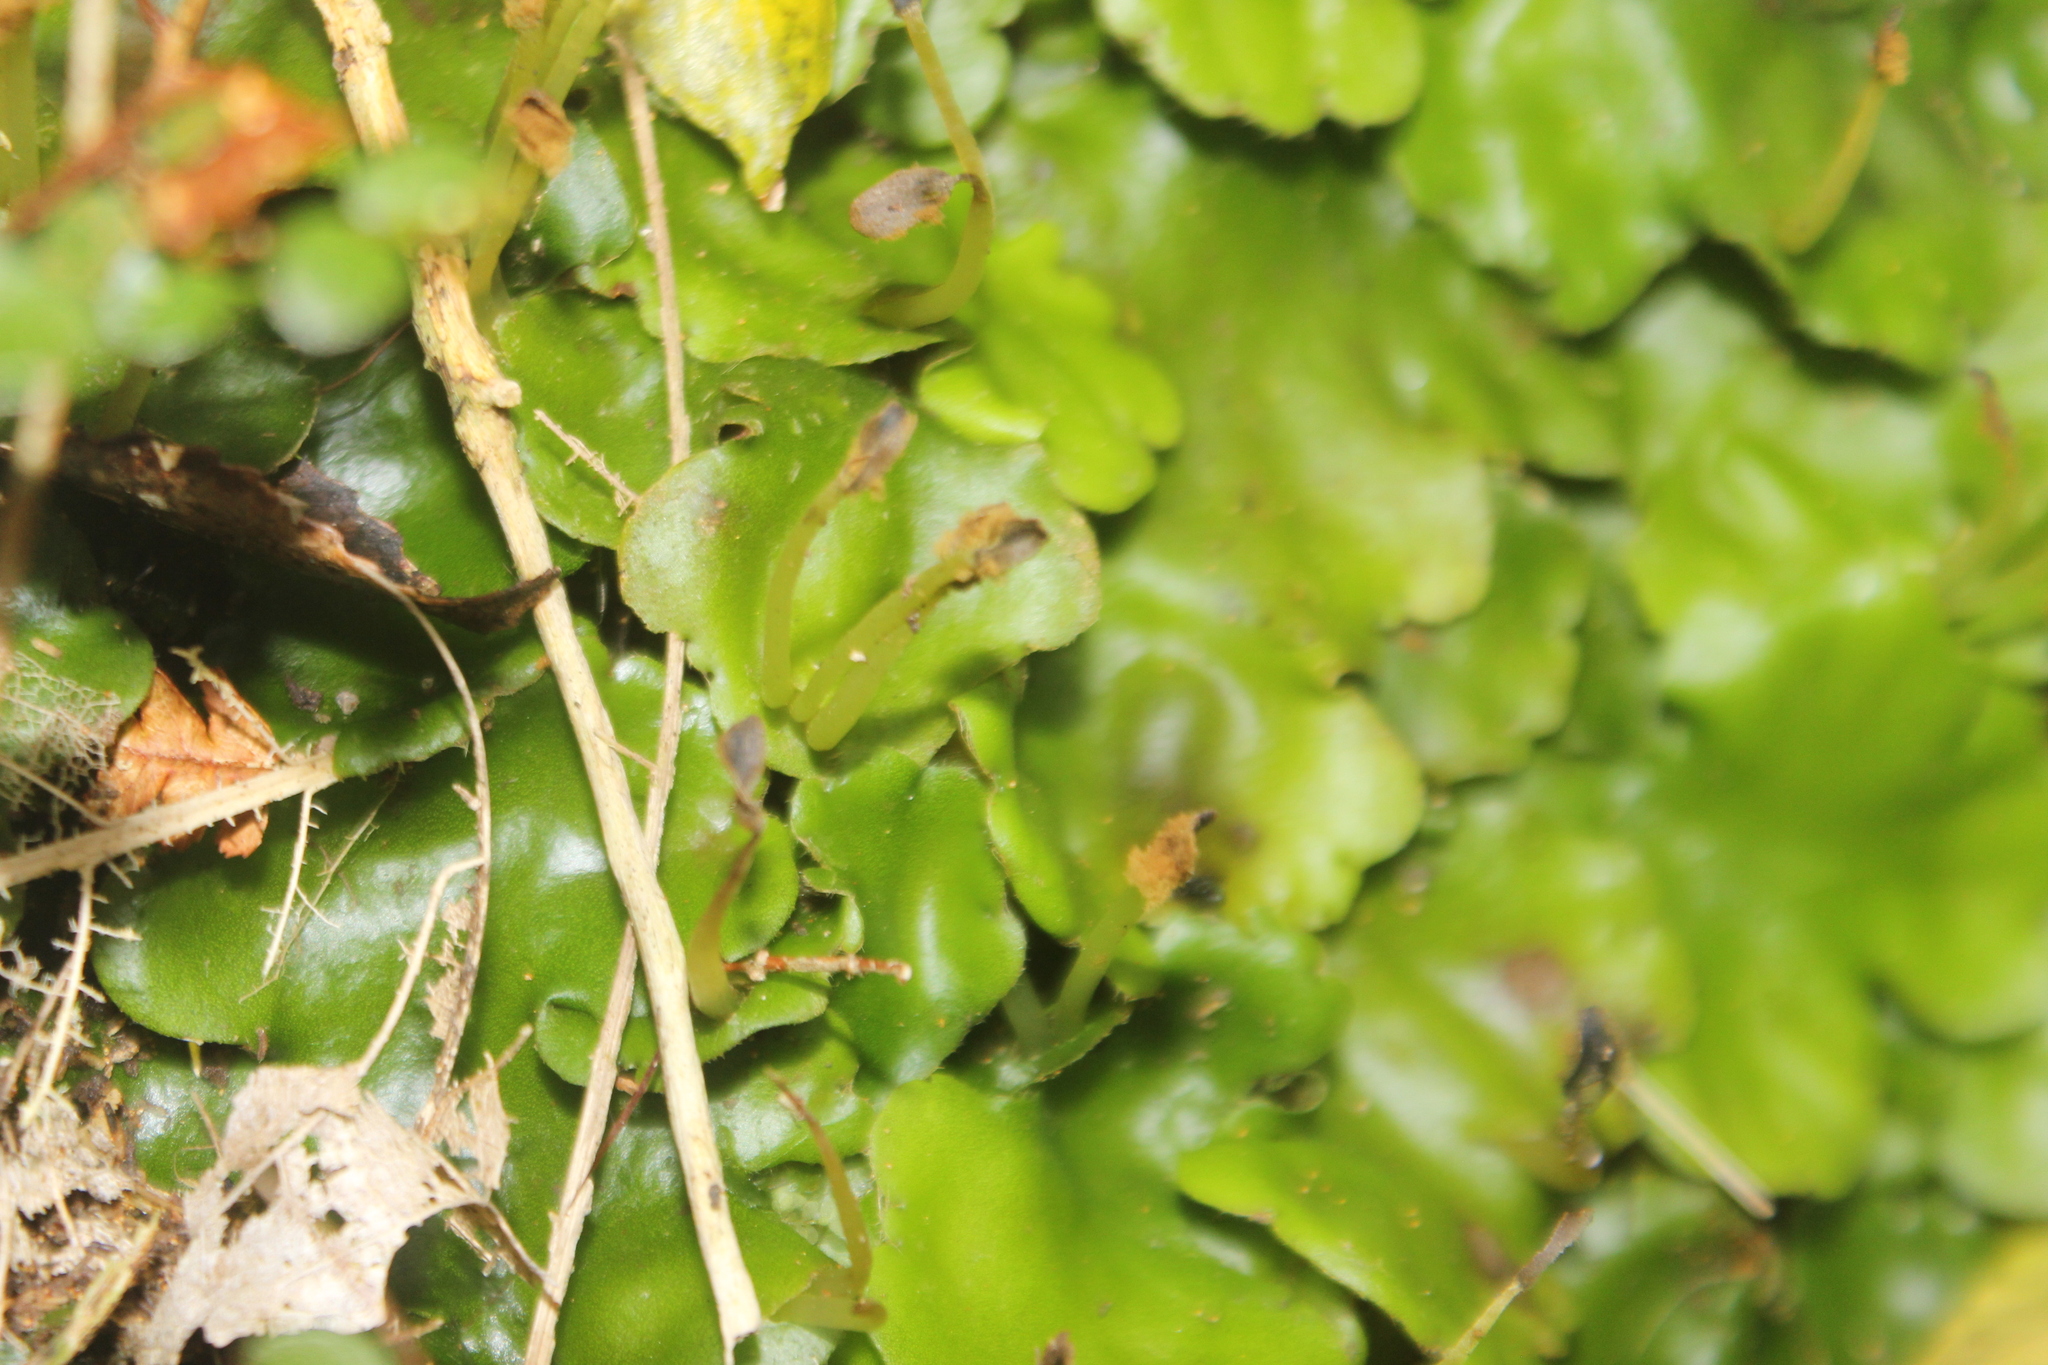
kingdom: Plantae
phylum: Marchantiophyta
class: Marchantiopsida
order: Marchantiales
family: Monocleaceae
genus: Monoclea
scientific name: Monoclea forsteri
